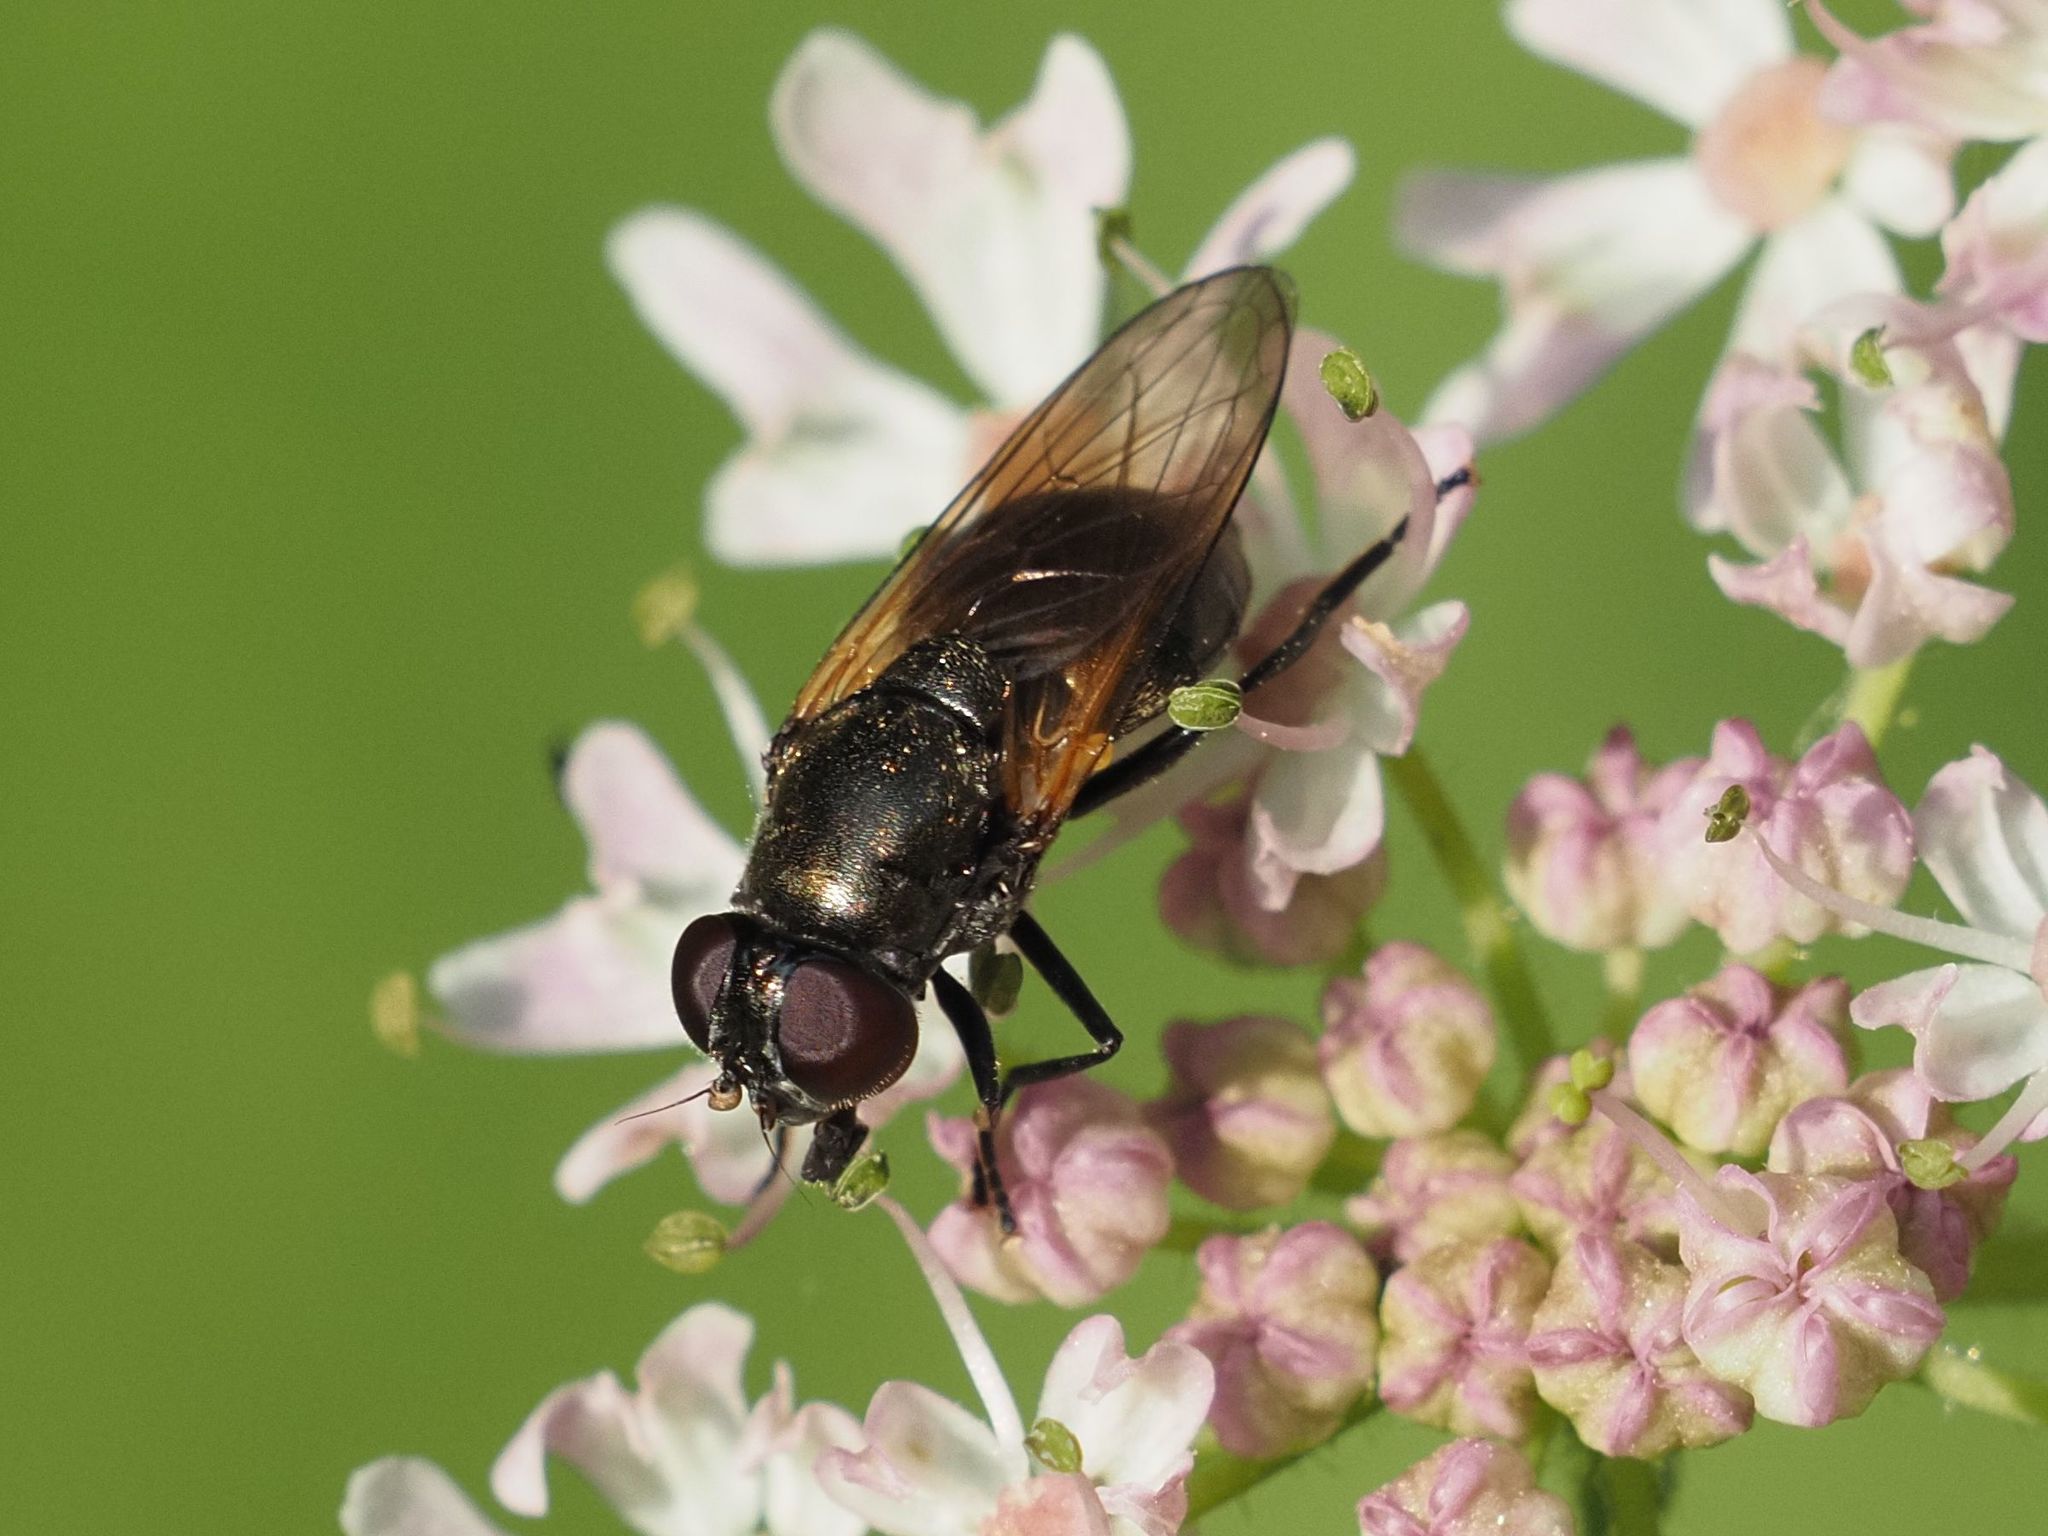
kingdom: Animalia
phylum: Arthropoda
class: Insecta
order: Diptera
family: Syrphidae
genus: Cheilosia
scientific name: Cheilosia impressa
